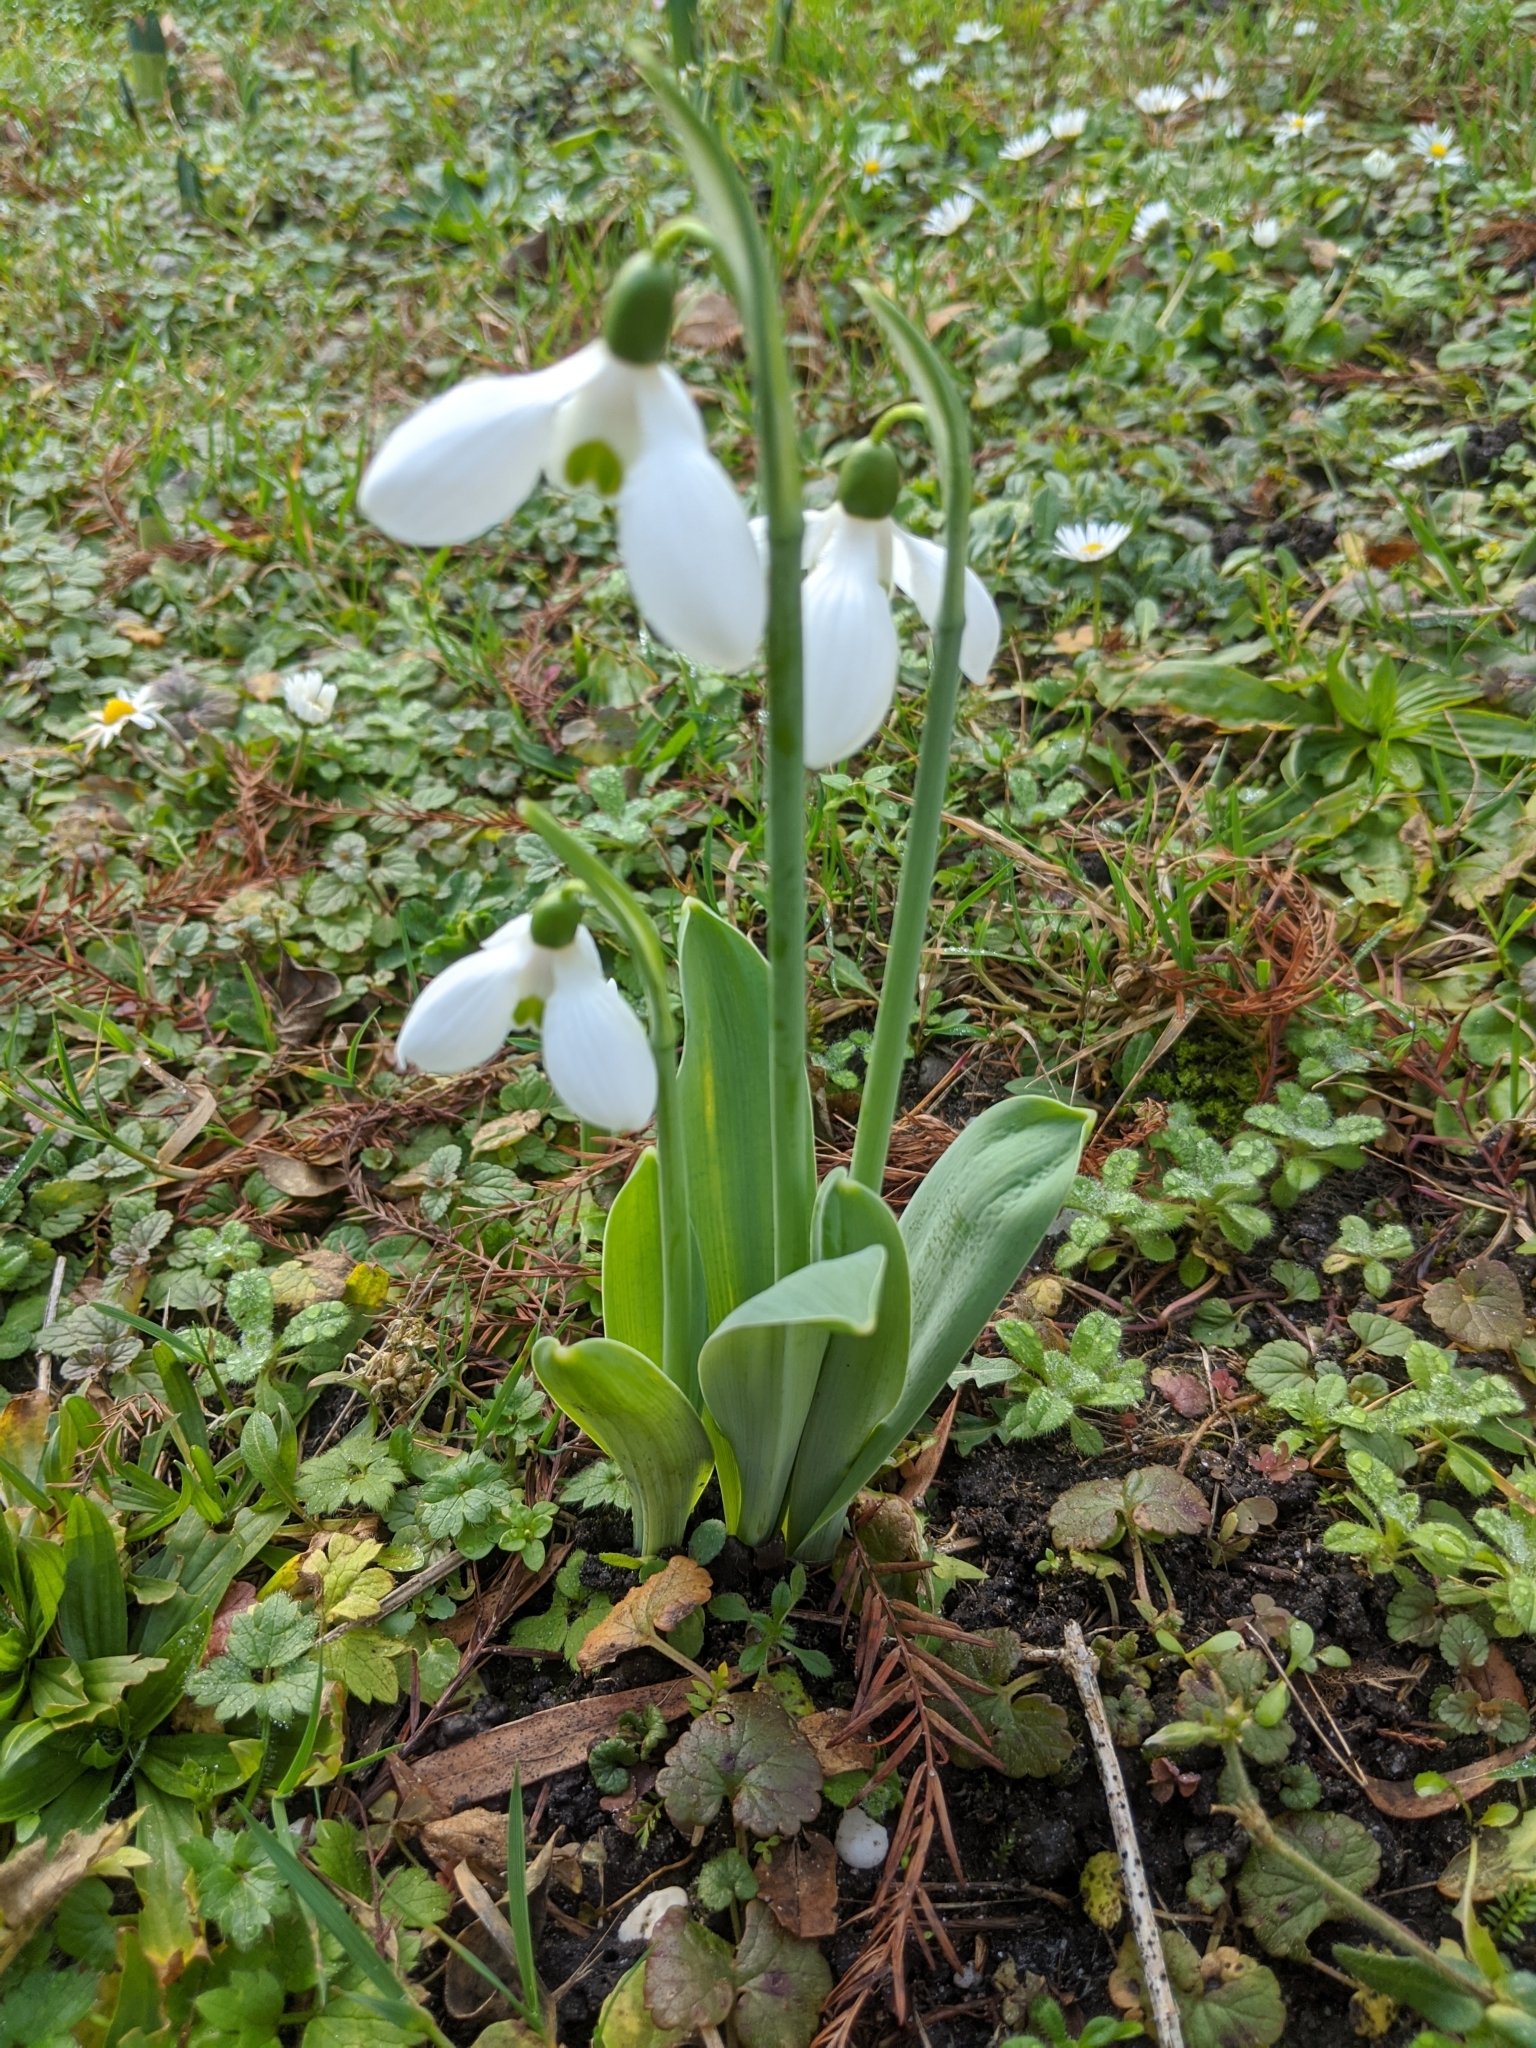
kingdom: Plantae
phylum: Tracheophyta
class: Liliopsida
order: Asparagales
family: Amaryllidaceae
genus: Galanthus
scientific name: Galanthus elwesii
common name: Greater snowdrop
